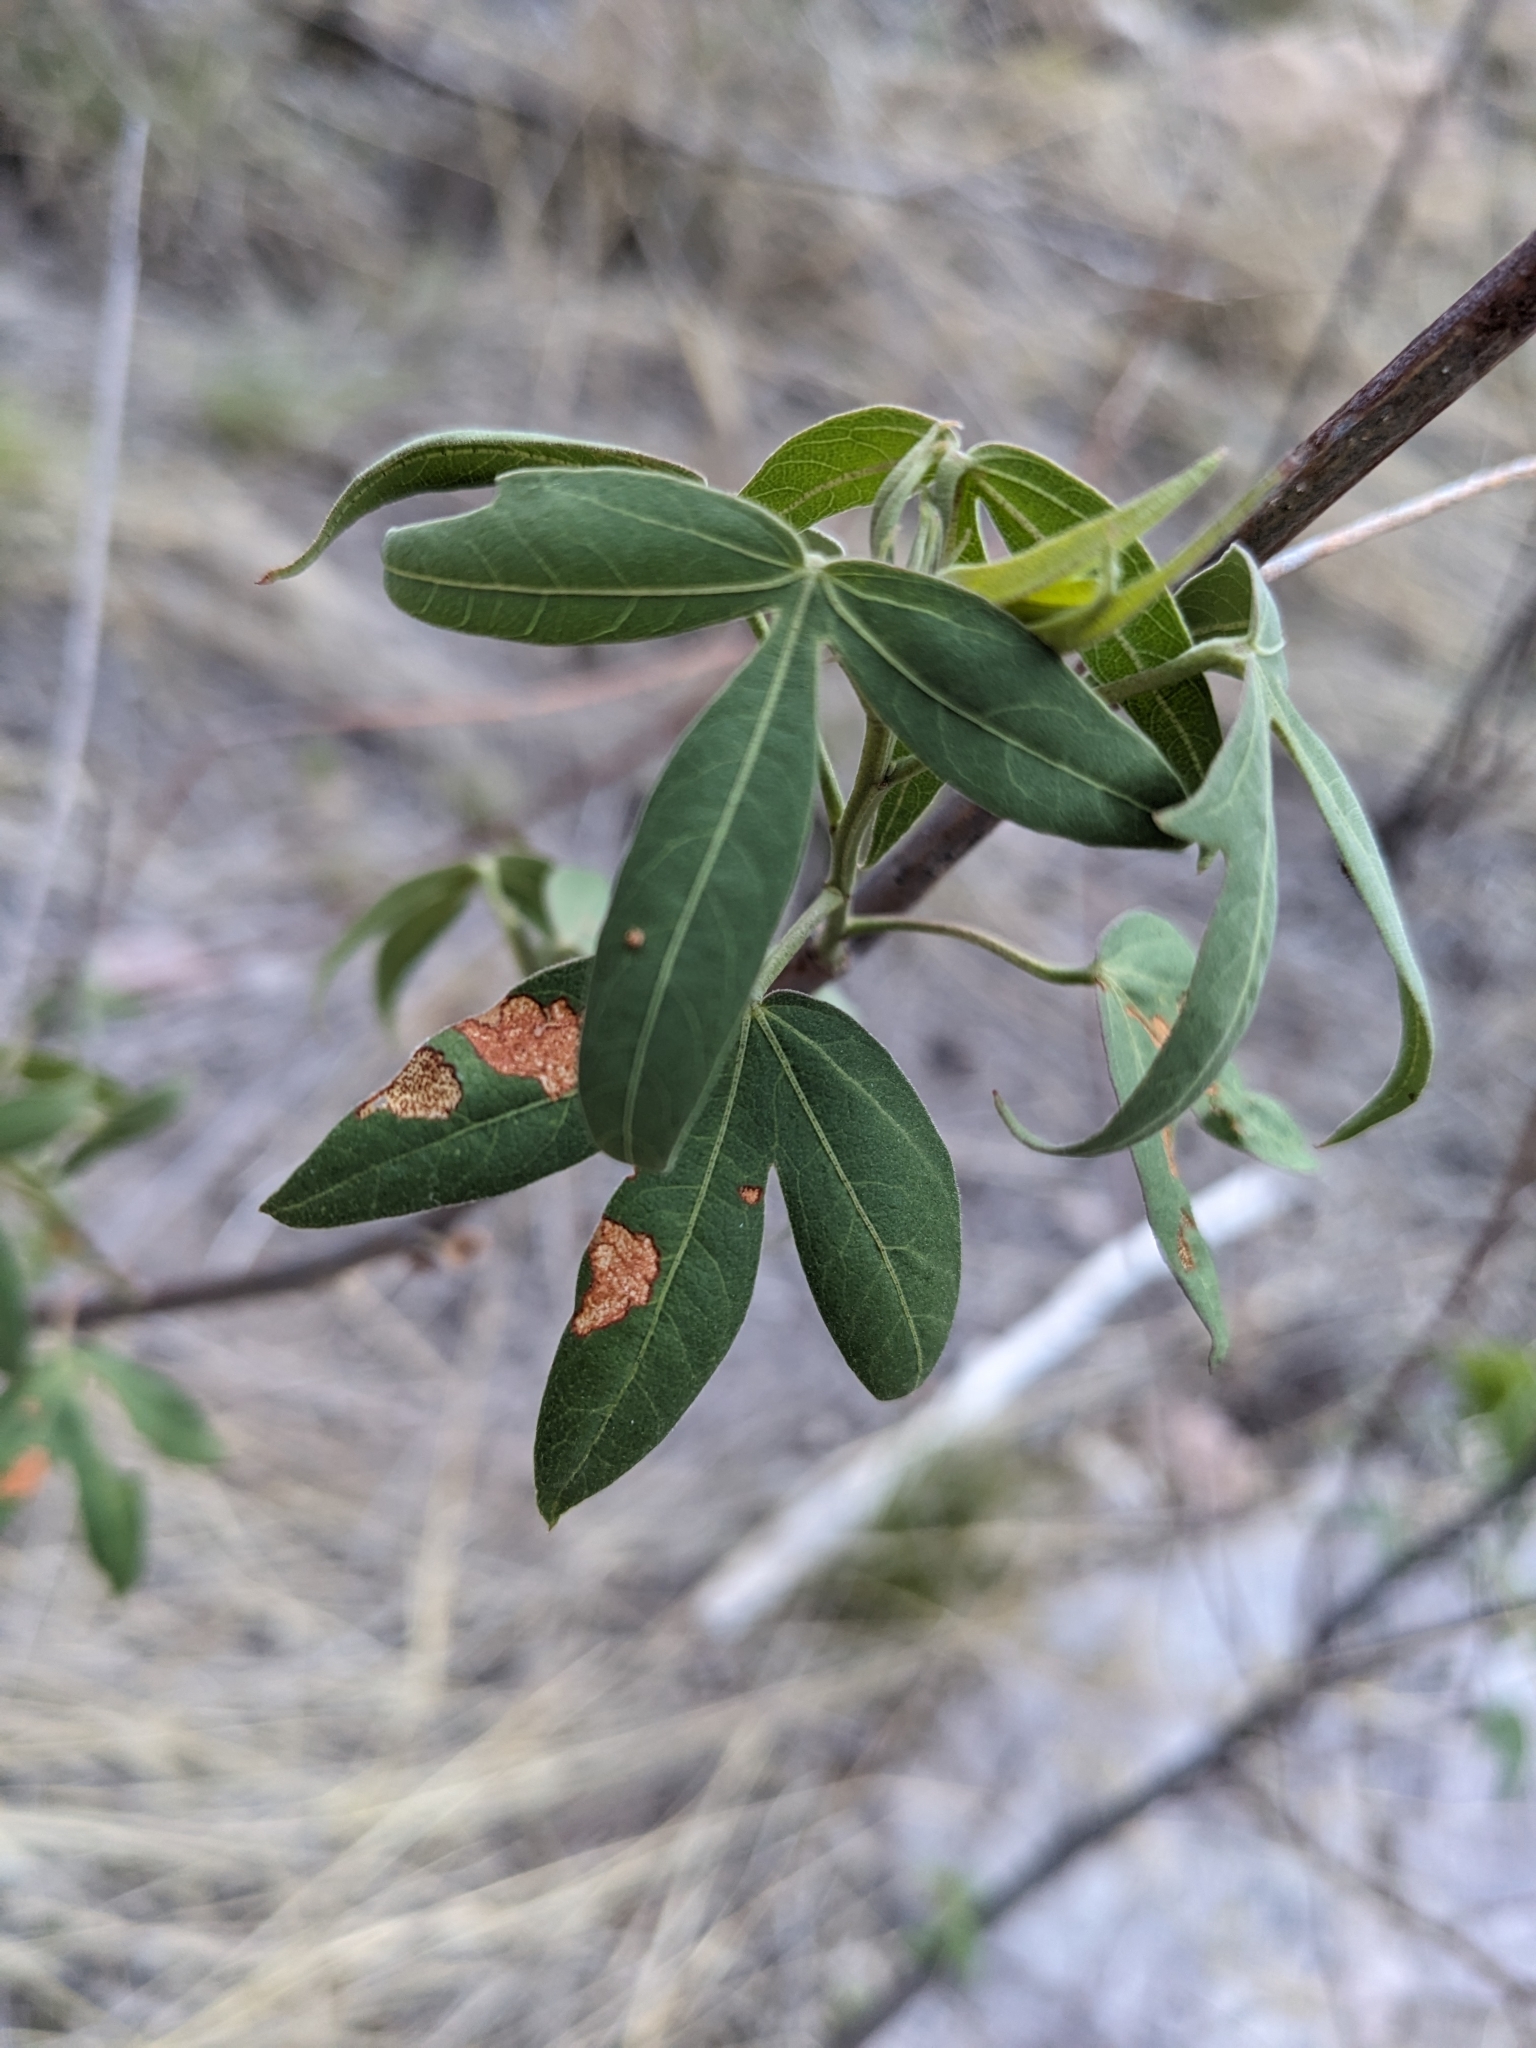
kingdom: Plantae
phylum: Tracheophyta
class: Magnoliopsida
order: Malvales
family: Malvaceae
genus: Gossypium
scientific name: Gossypium thurberi
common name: Desert cotton
